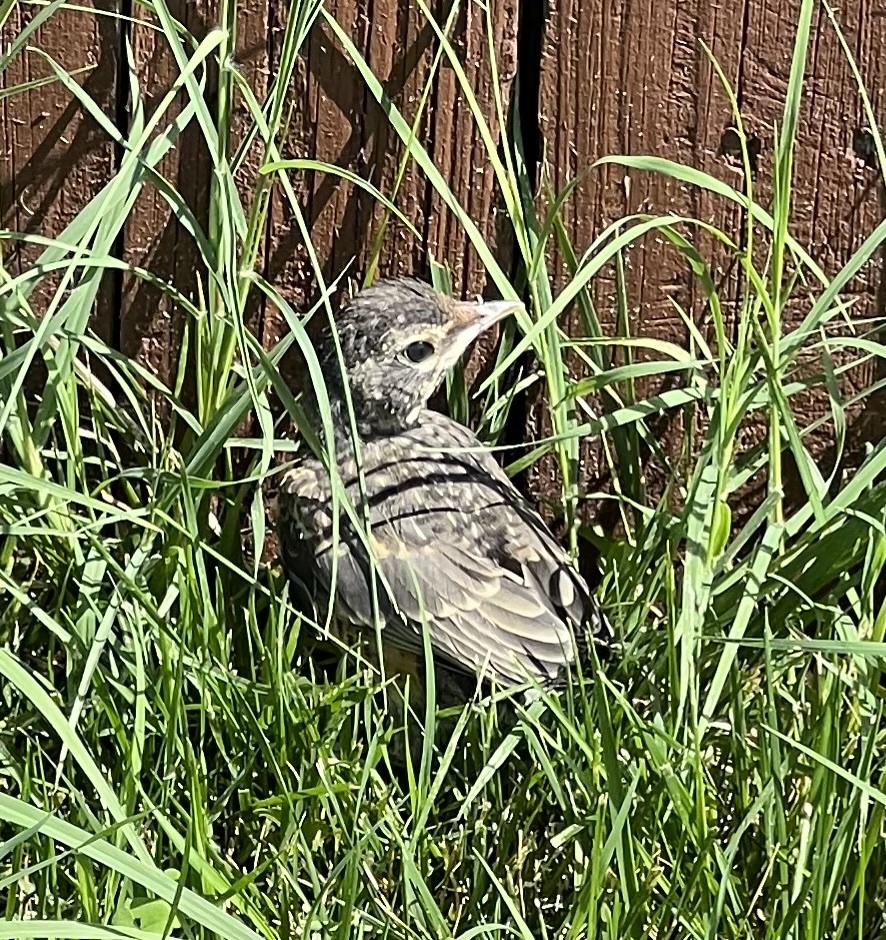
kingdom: Animalia
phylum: Chordata
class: Aves
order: Passeriformes
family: Turdidae
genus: Turdus
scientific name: Turdus migratorius
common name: American robin
